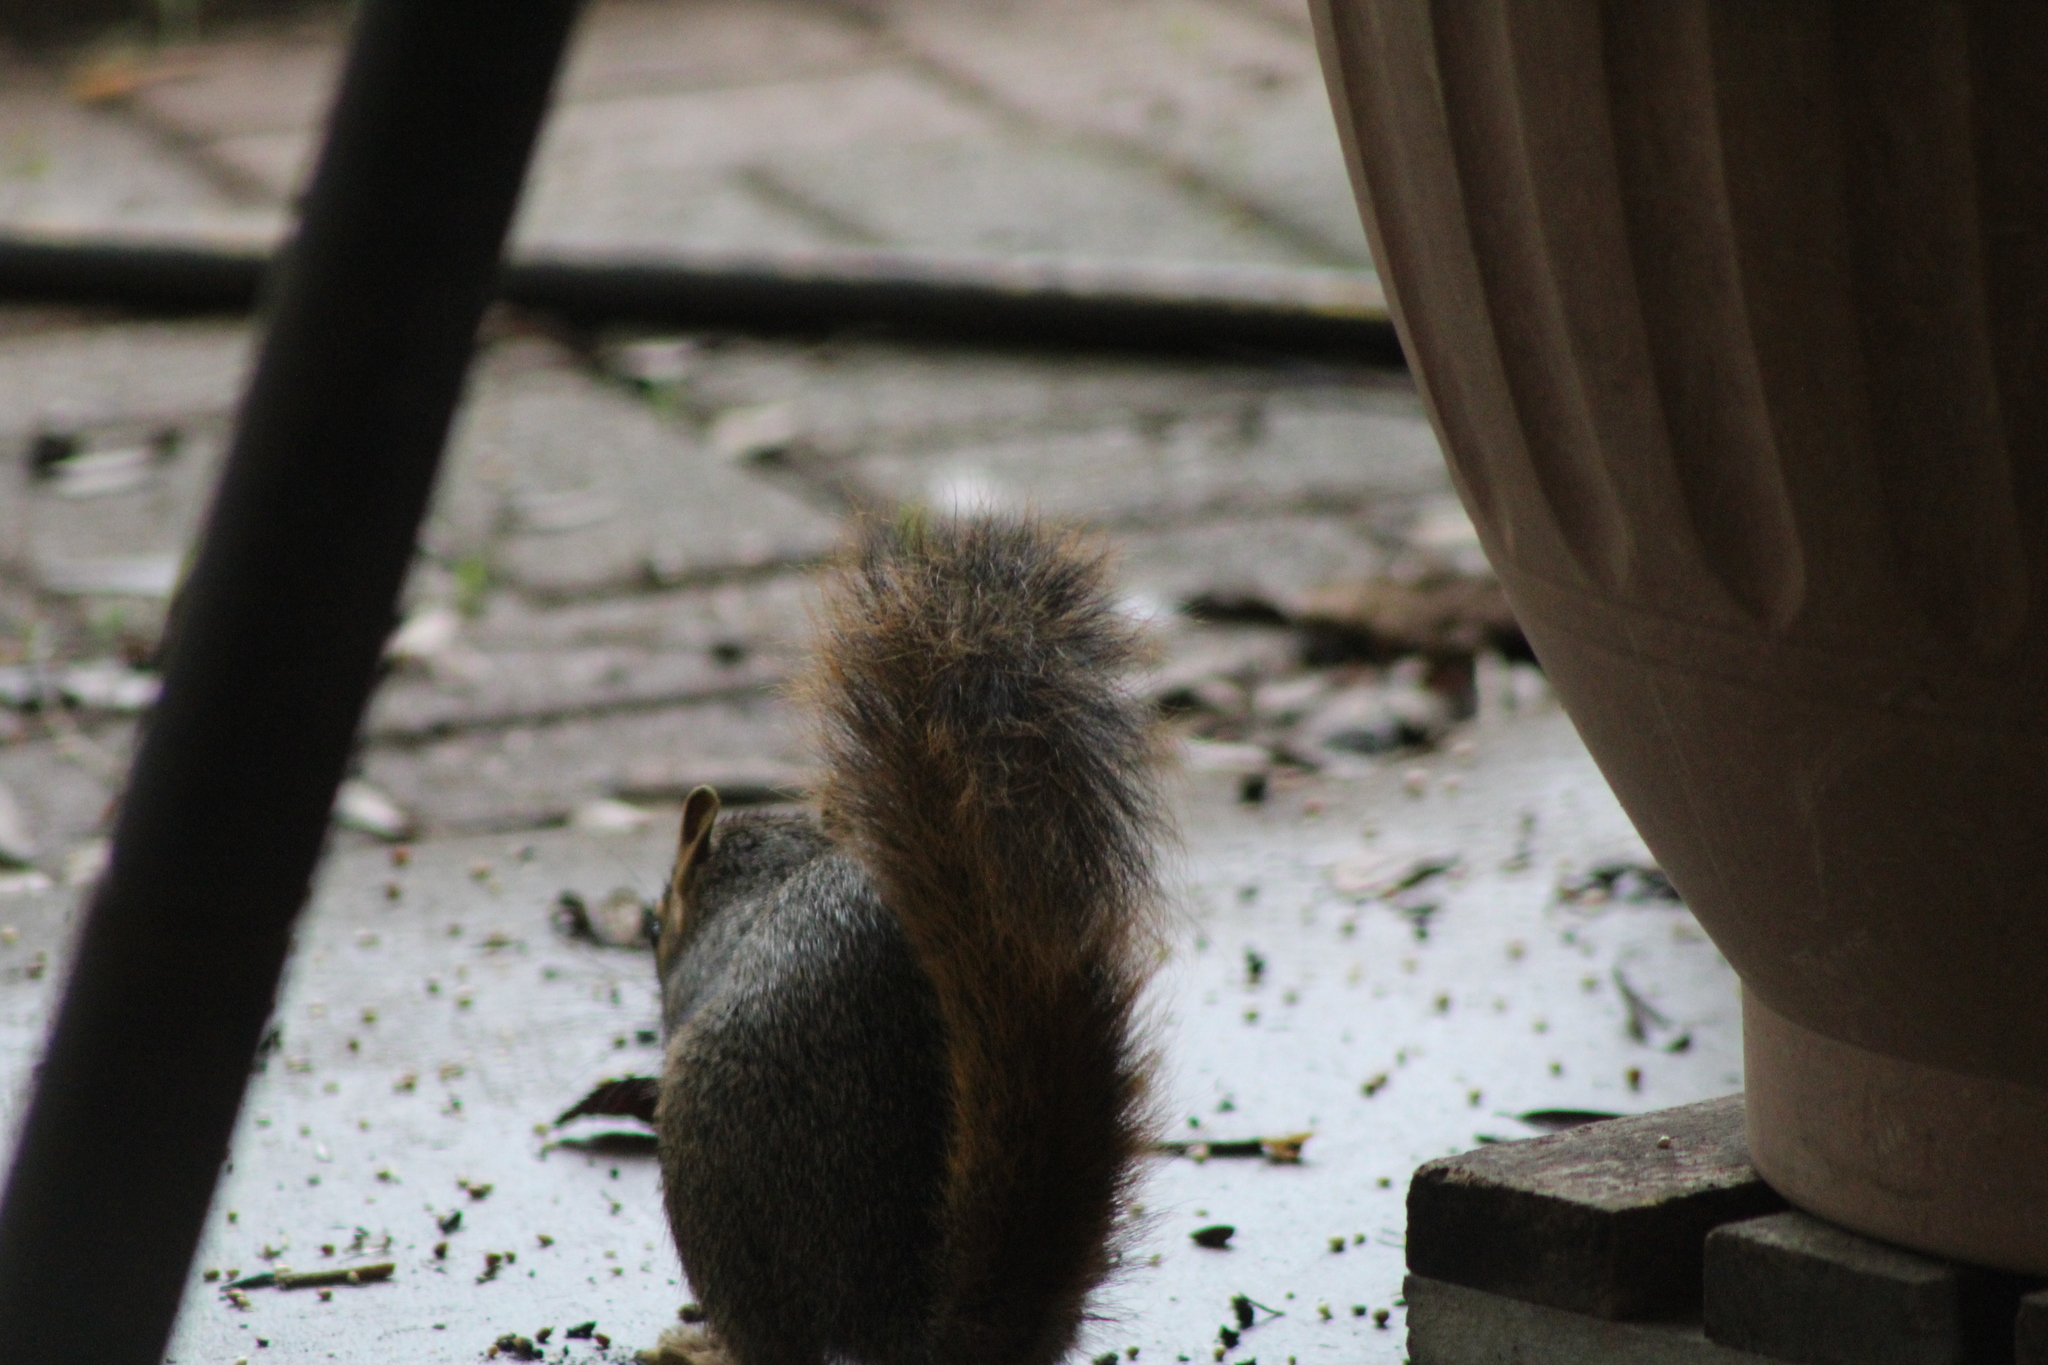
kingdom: Animalia
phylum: Chordata
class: Mammalia
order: Rodentia
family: Sciuridae
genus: Sciurus
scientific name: Sciurus niger
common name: Fox squirrel
